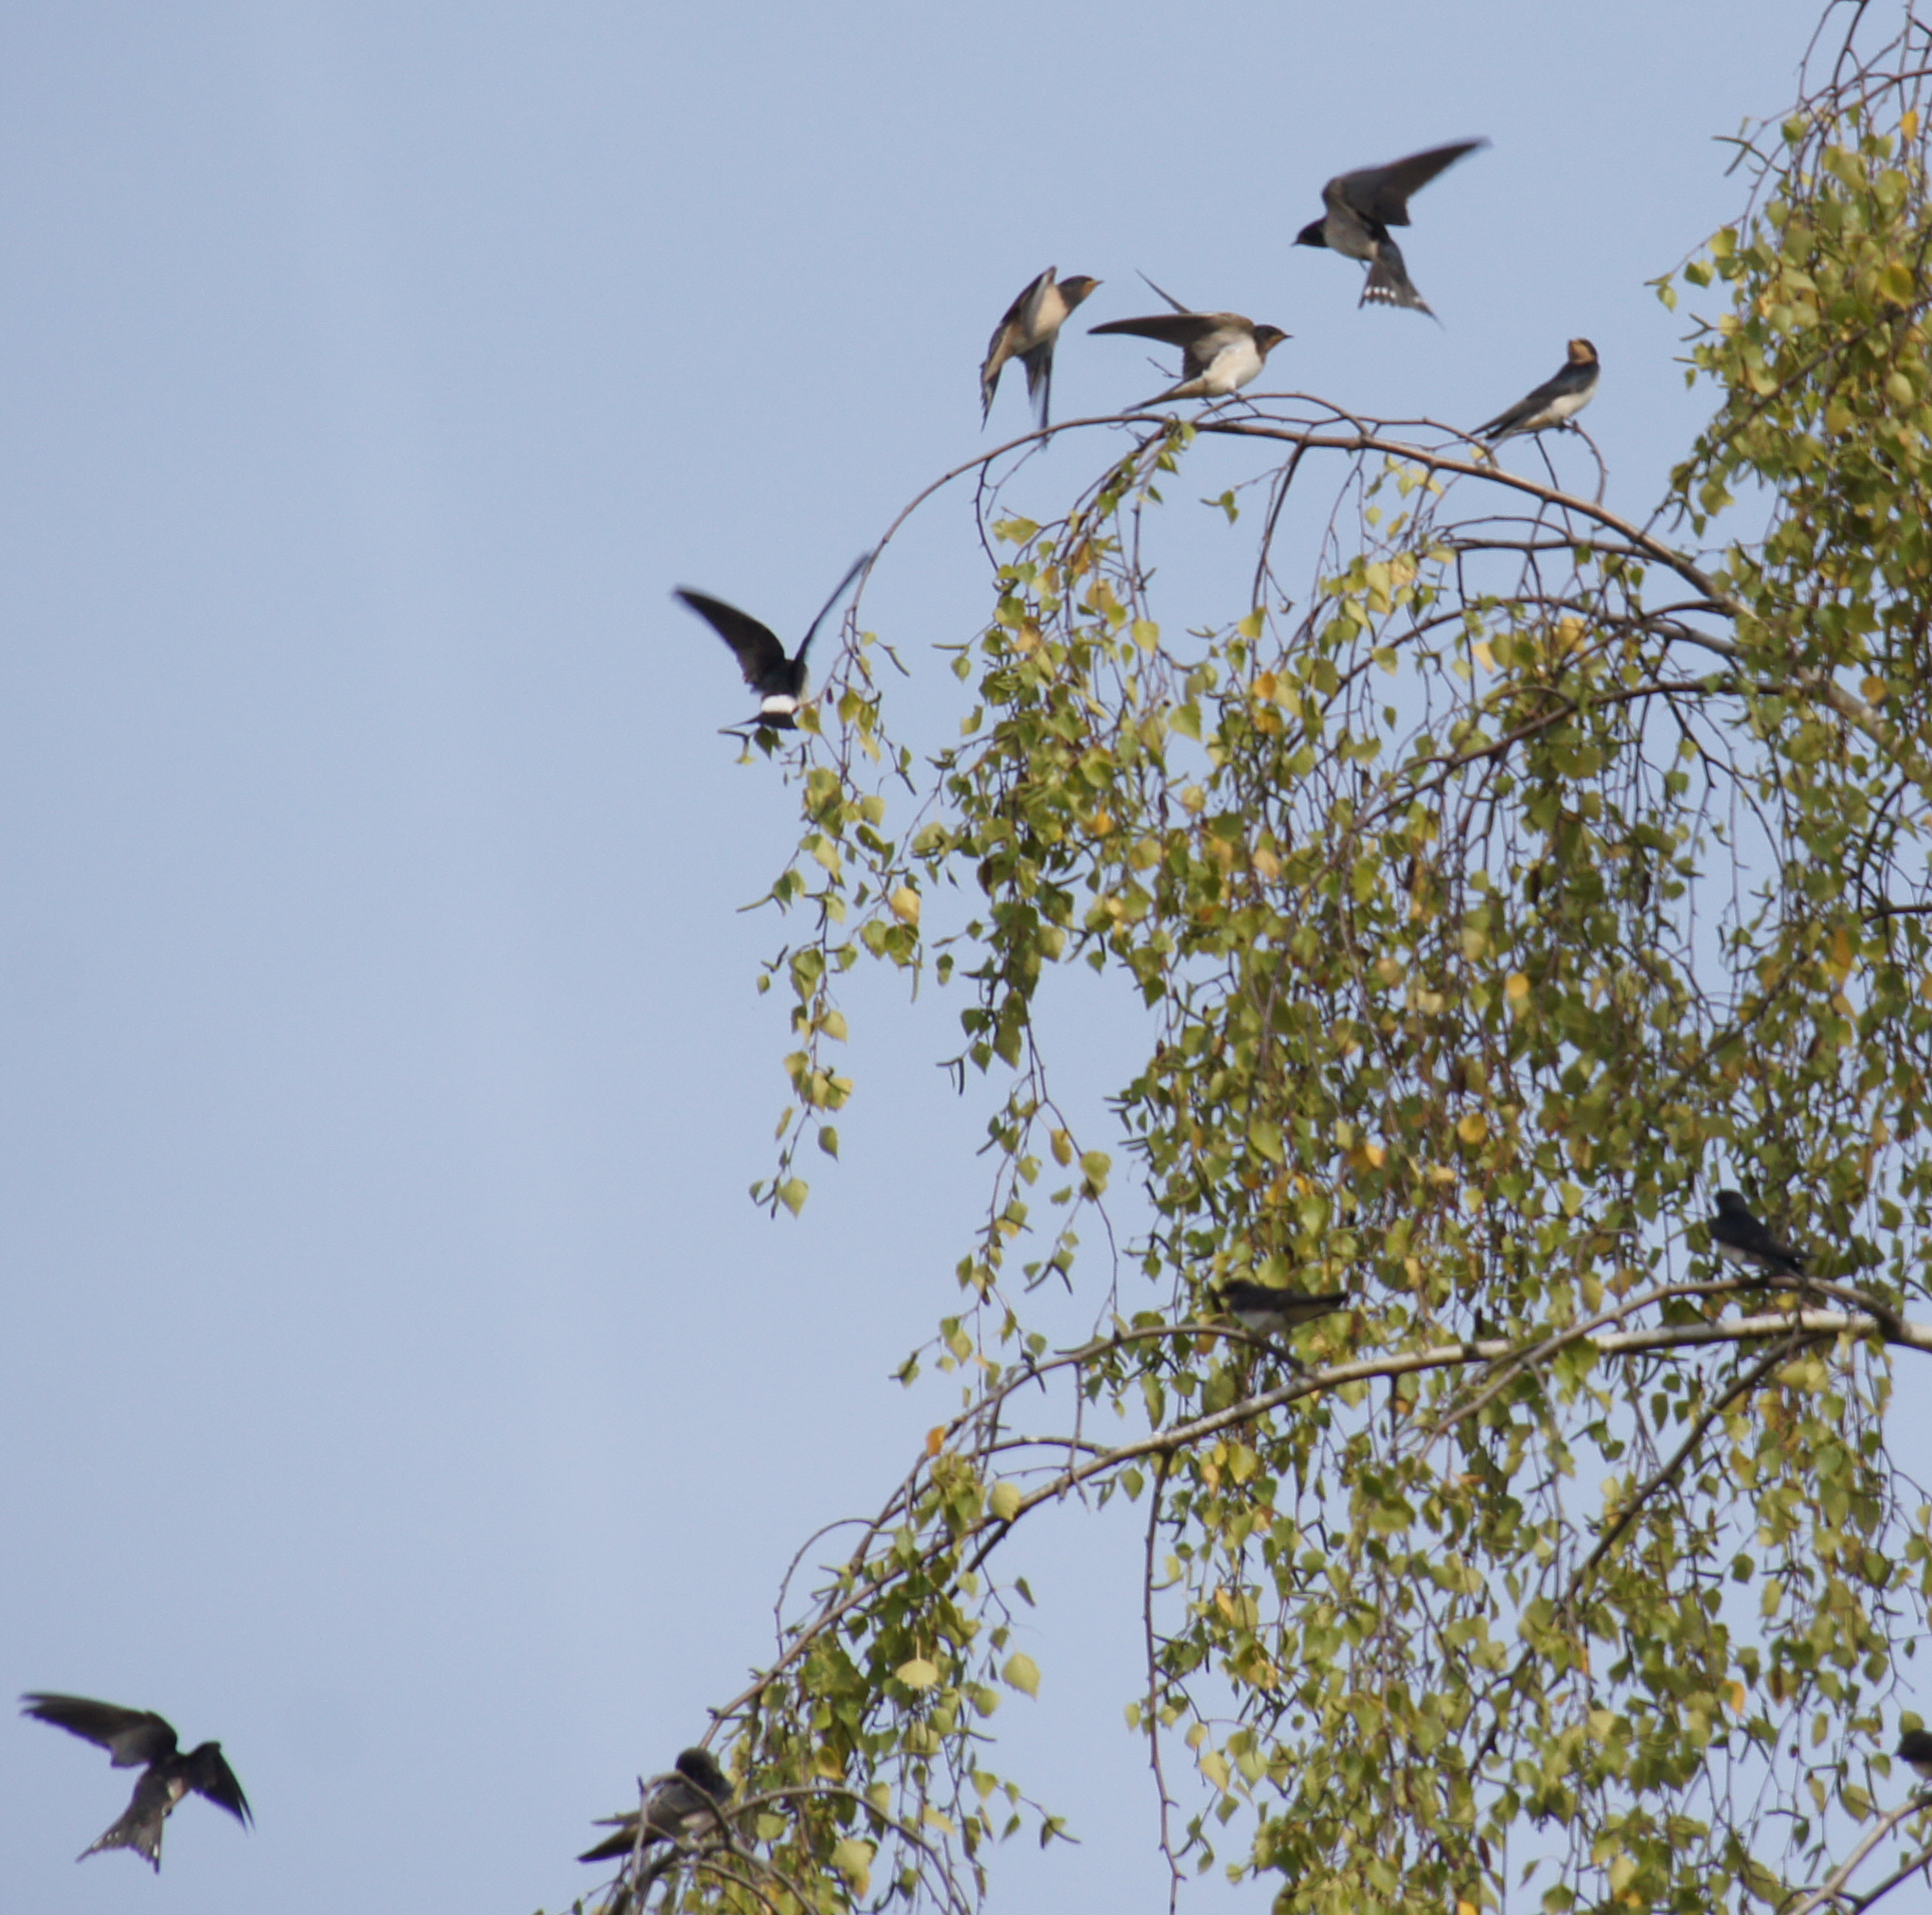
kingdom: Animalia
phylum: Chordata
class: Aves
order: Passeriformes
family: Hirundinidae
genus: Hirundo
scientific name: Hirundo rustica
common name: Barn swallow
